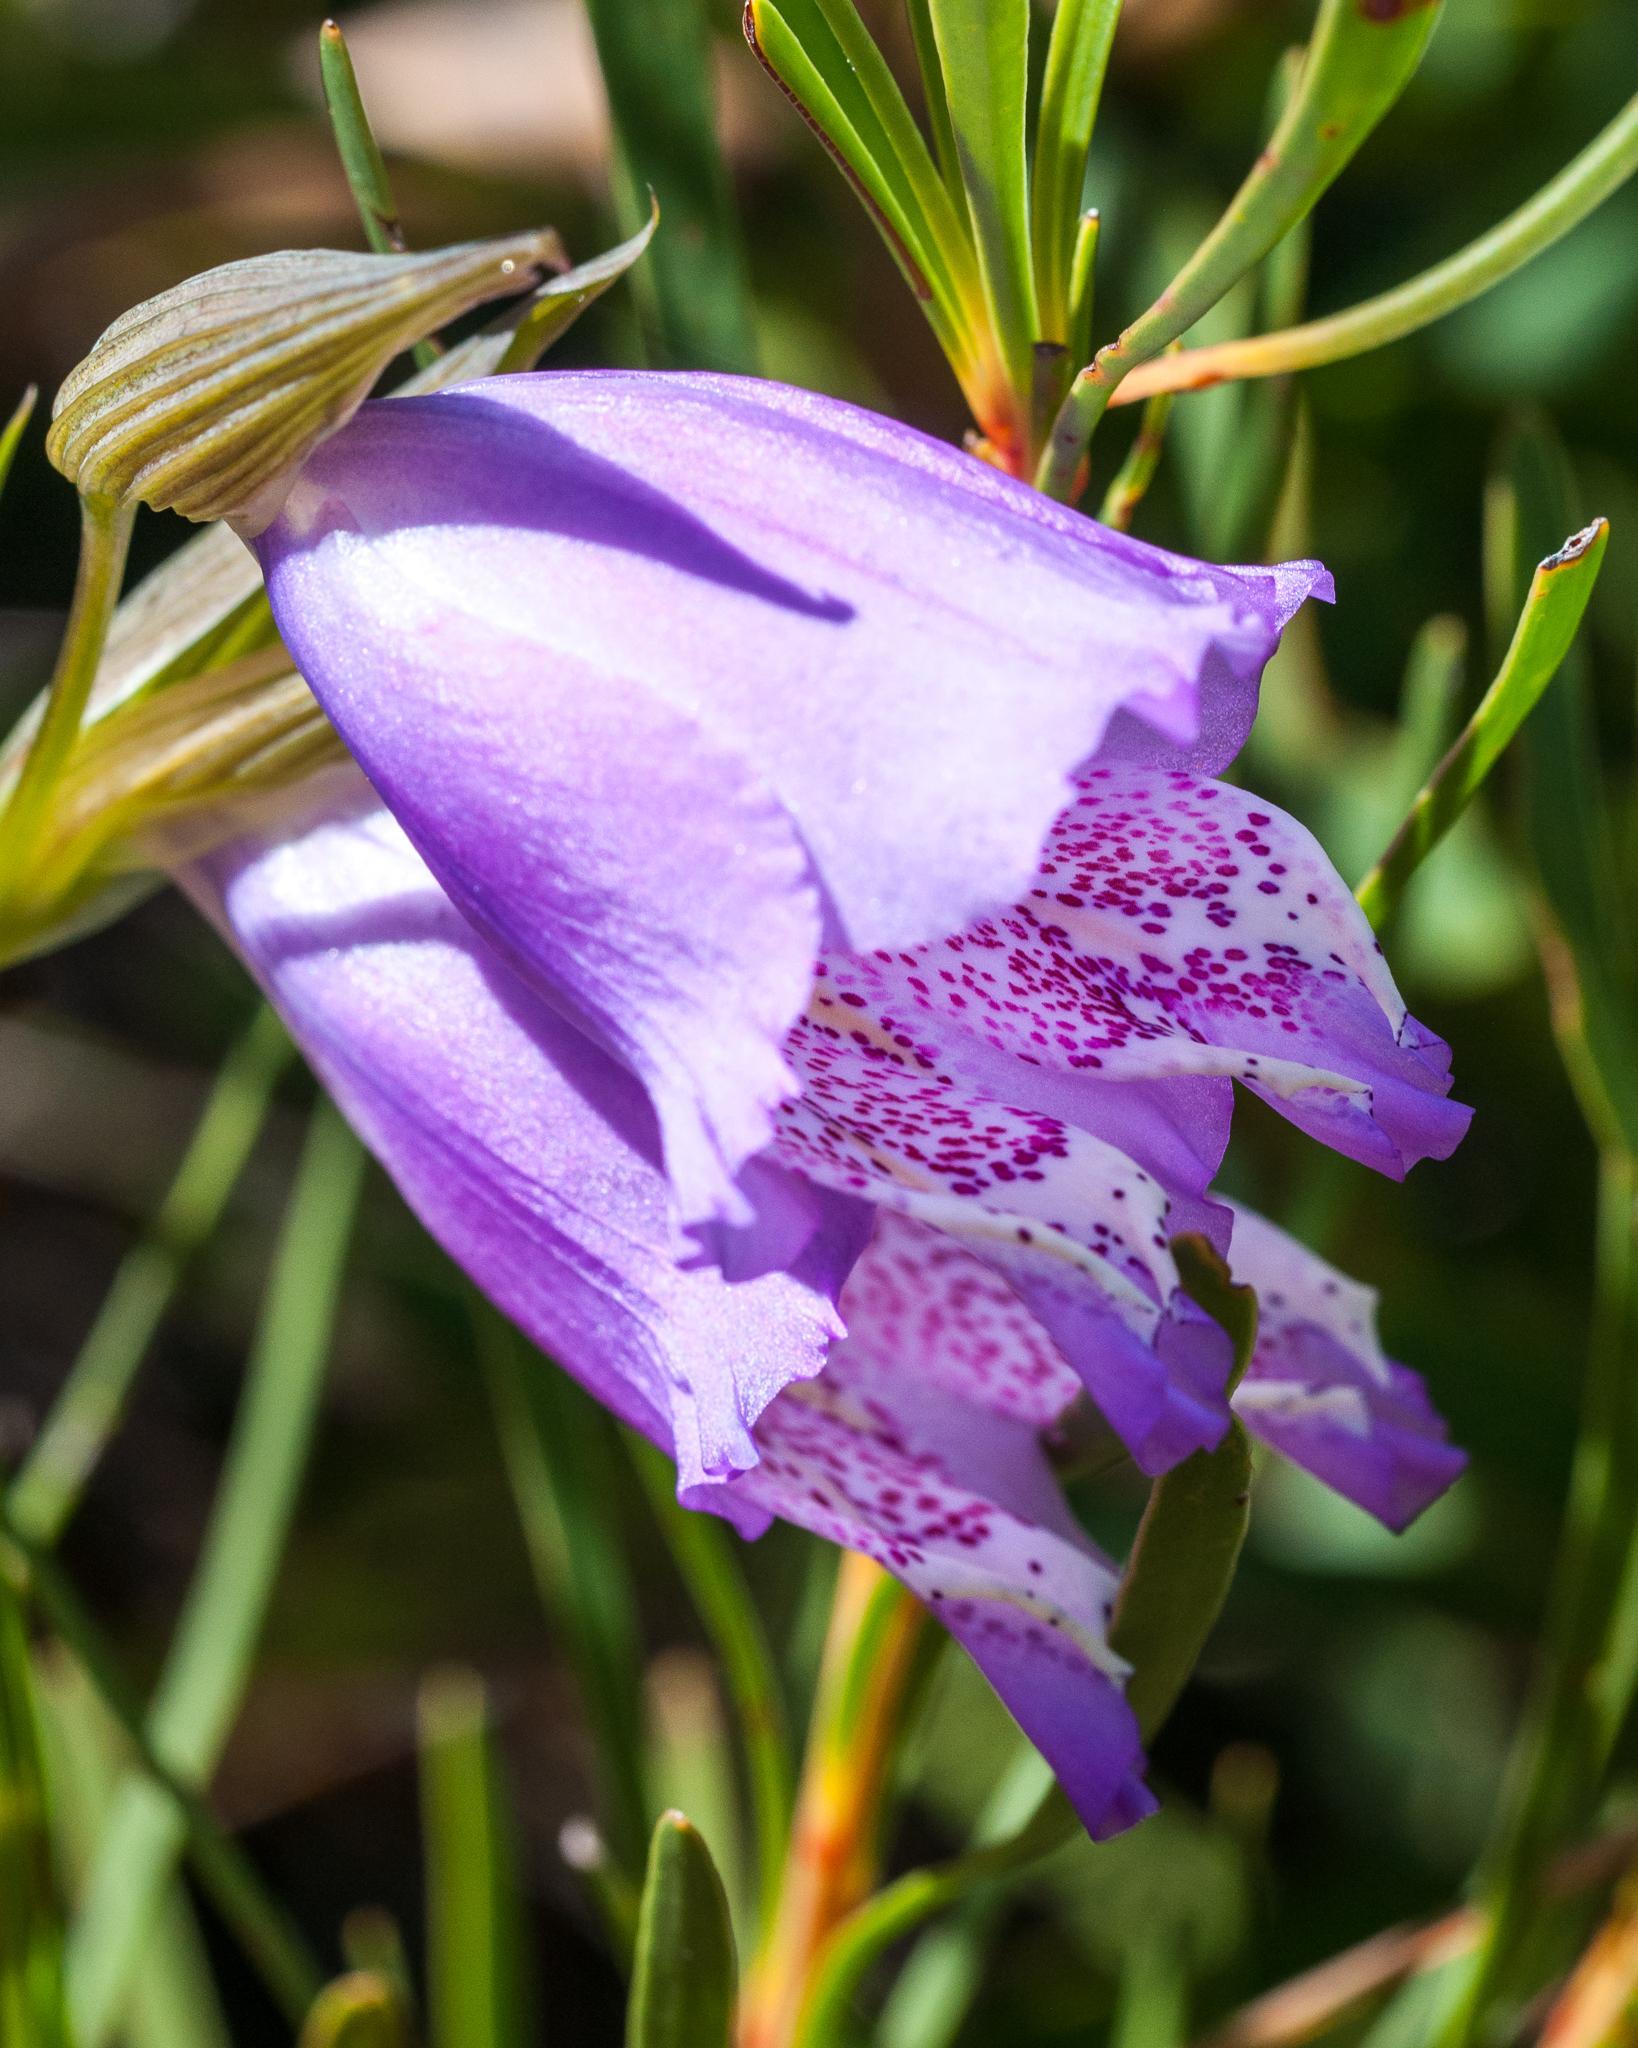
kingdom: Plantae
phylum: Tracheophyta
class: Liliopsida
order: Asparagales
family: Iridaceae
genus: Gladiolus
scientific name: Gladiolus bullatus
